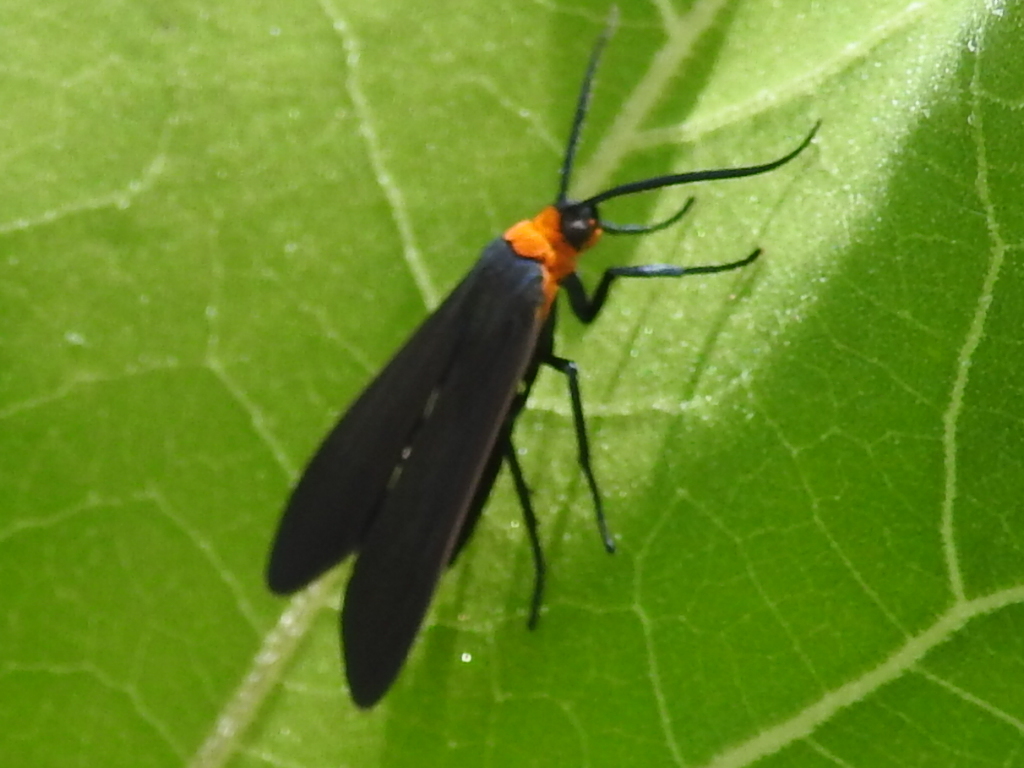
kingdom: Animalia
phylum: Arthropoda
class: Insecta
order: Lepidoptera
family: Erebidae
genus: Cisseps
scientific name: Cisseps fulvicollis
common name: Yellow-collared scape moth
